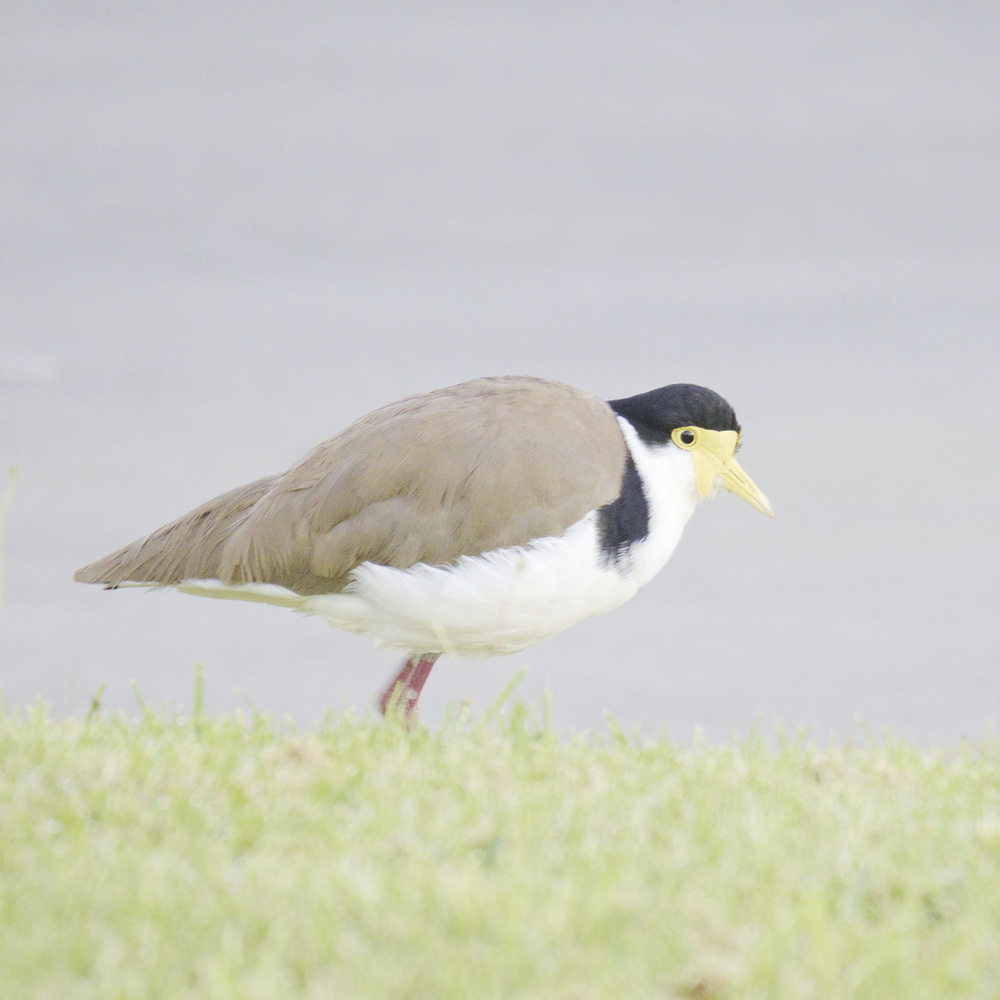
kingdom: Animalia
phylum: Chordata
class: Aves
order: Charadriiformes
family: Charadriidae
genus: Vanellus
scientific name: Vanellus miles
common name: Masked lapwing
